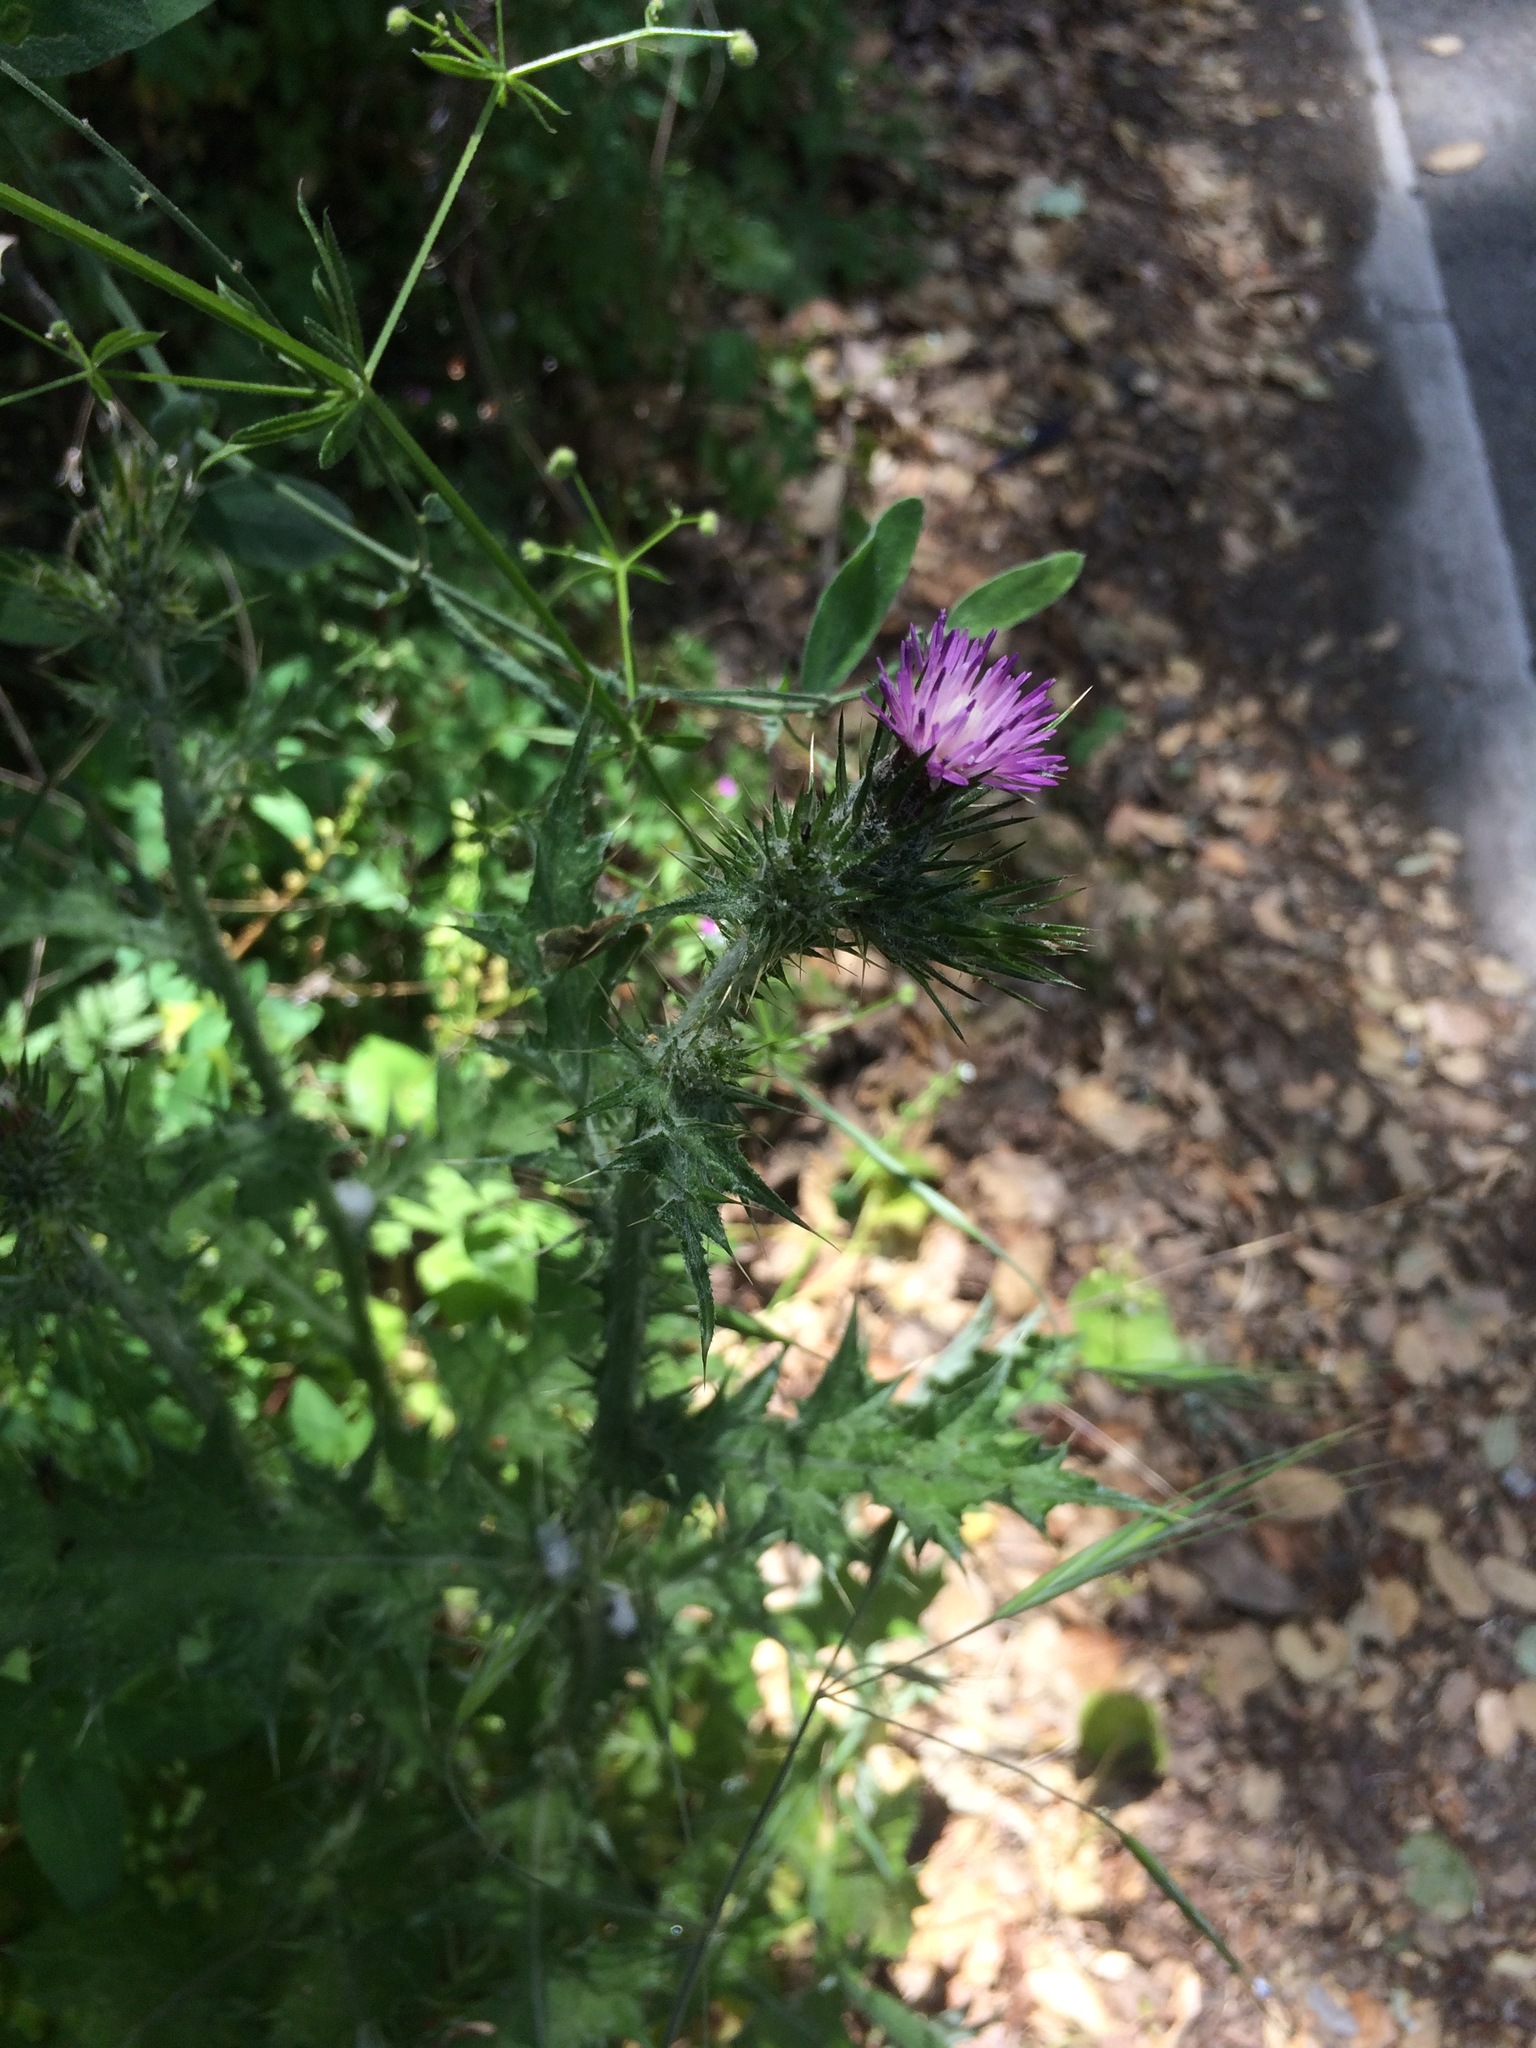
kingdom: Plantae
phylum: Tracheophyta
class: Magnoliopsida
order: Asterales
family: Asteraceae
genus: Carduus
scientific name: Carduus pycnocephalus
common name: Plymouth thistle
